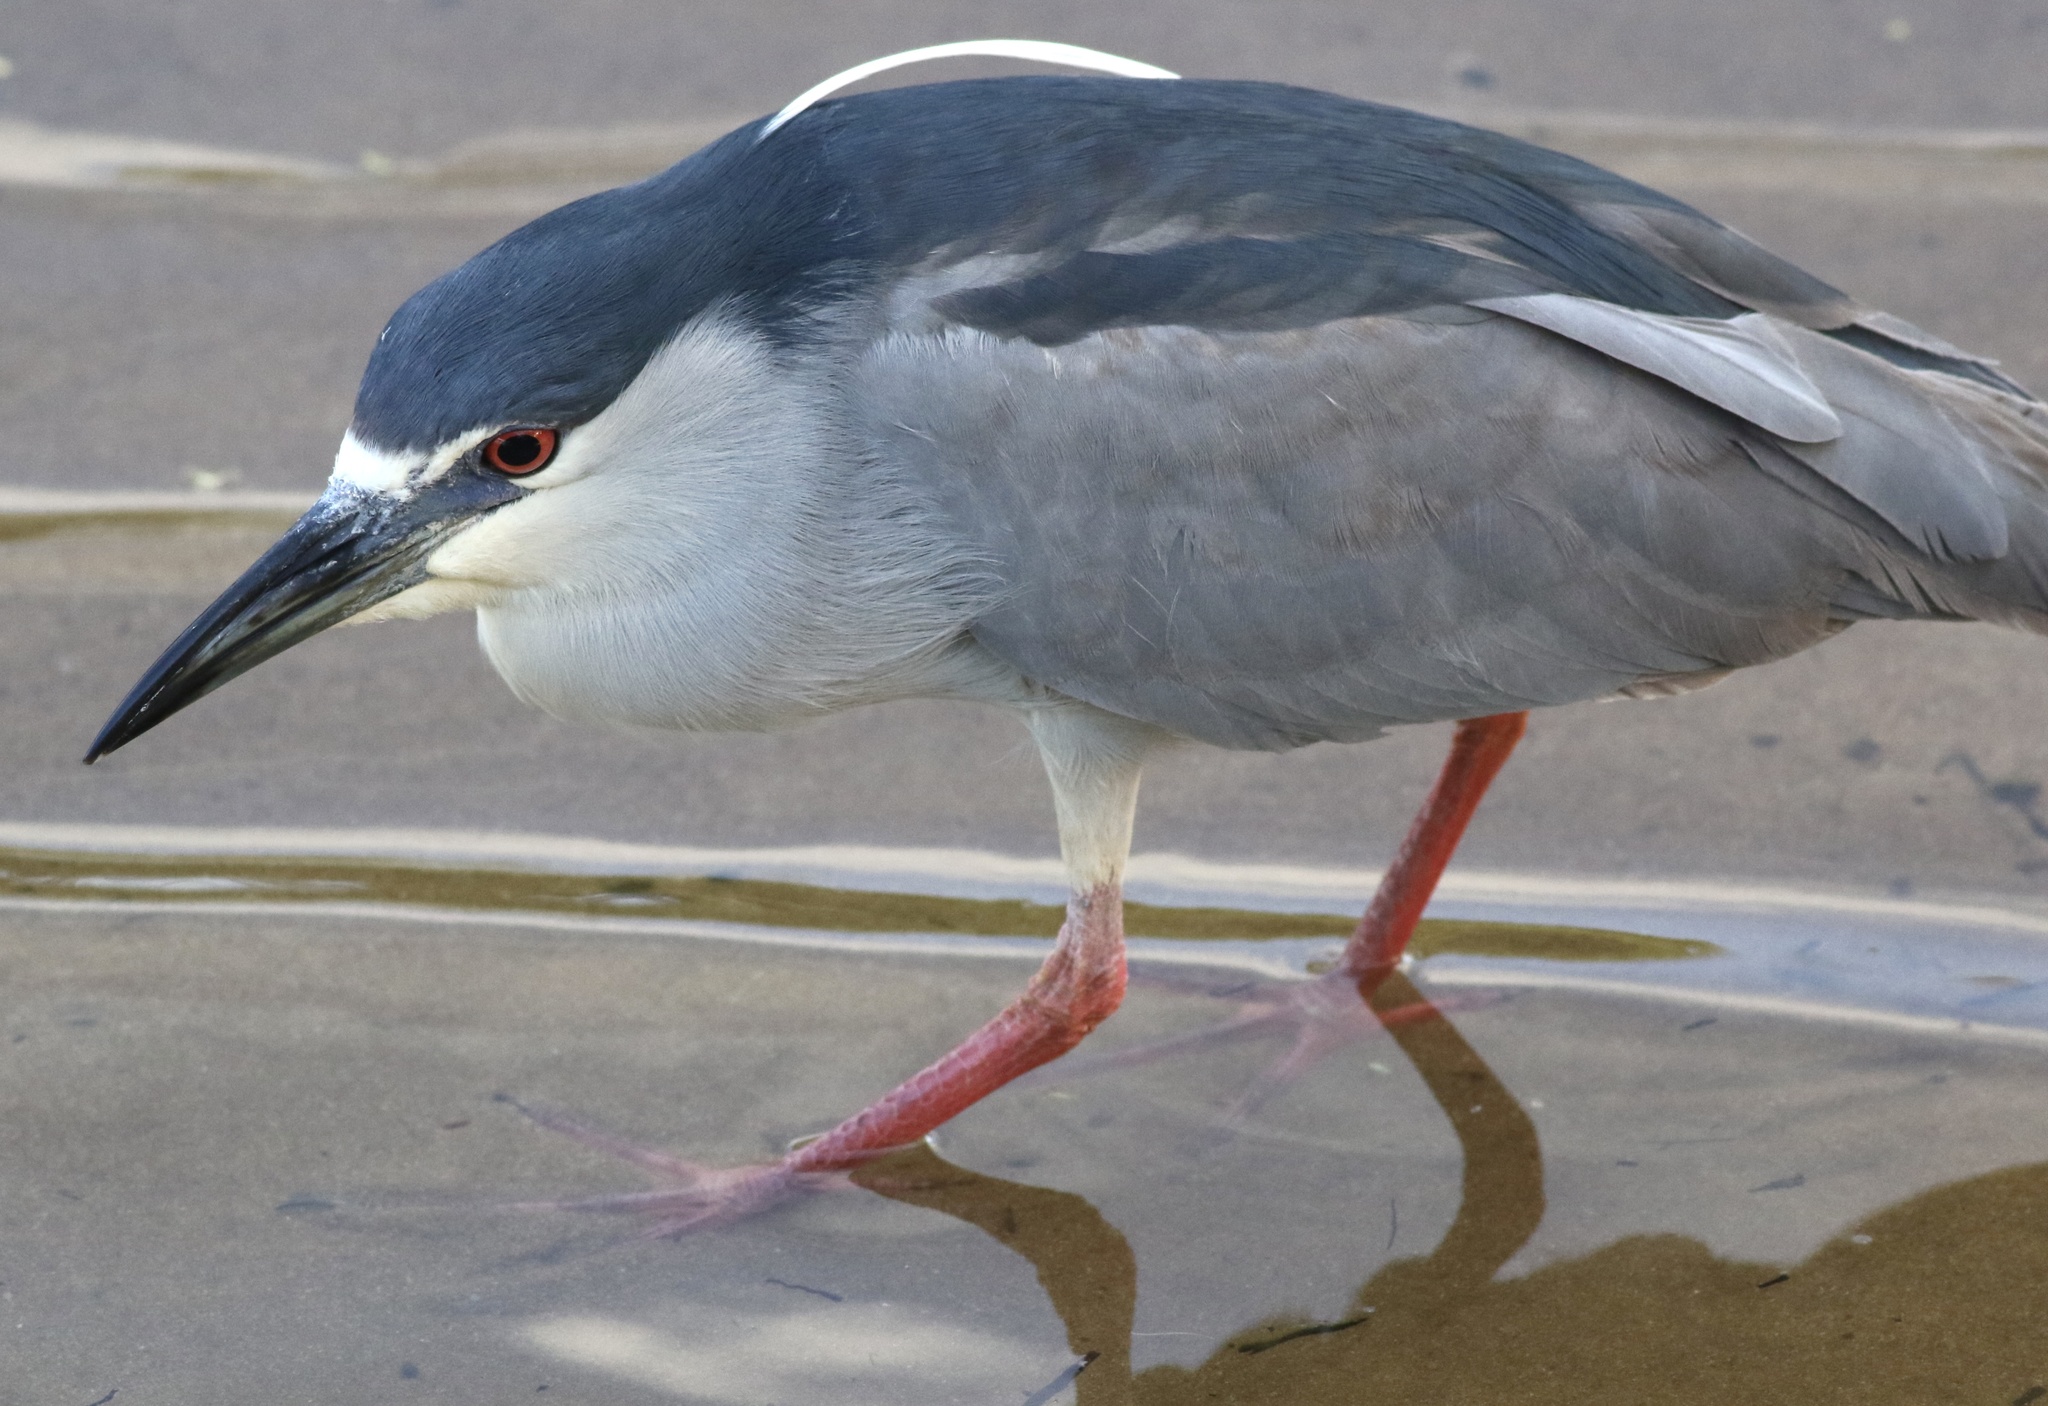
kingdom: Animalia
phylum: Chordata
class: Aves
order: Pelecaniformes
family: Ardeidae
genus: Nycticorax
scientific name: Nycticorax nycticorax
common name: Black-crowned night heron
